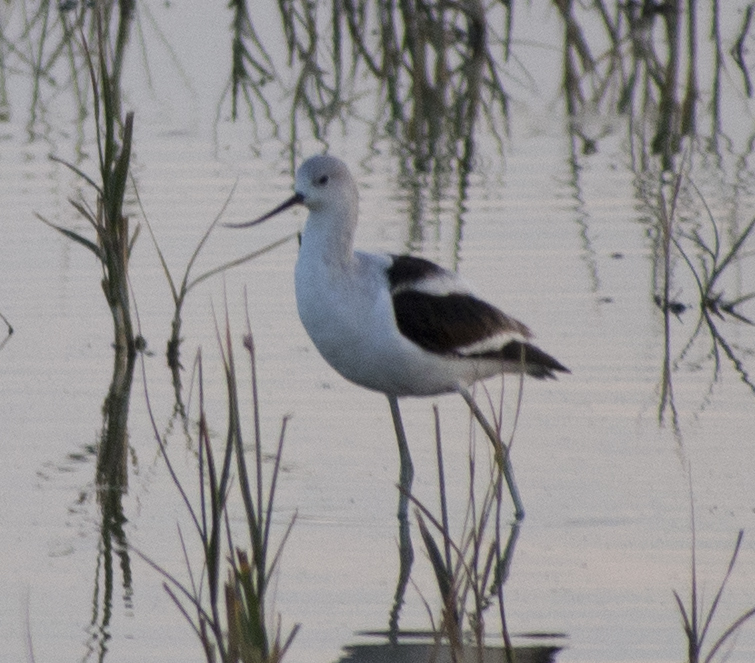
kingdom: Animalia
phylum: Chordata
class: Aves
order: Charadriiformes
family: Recurvirostridae
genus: Recurvirostra
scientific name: Recurvirostra americana
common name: American avocet
